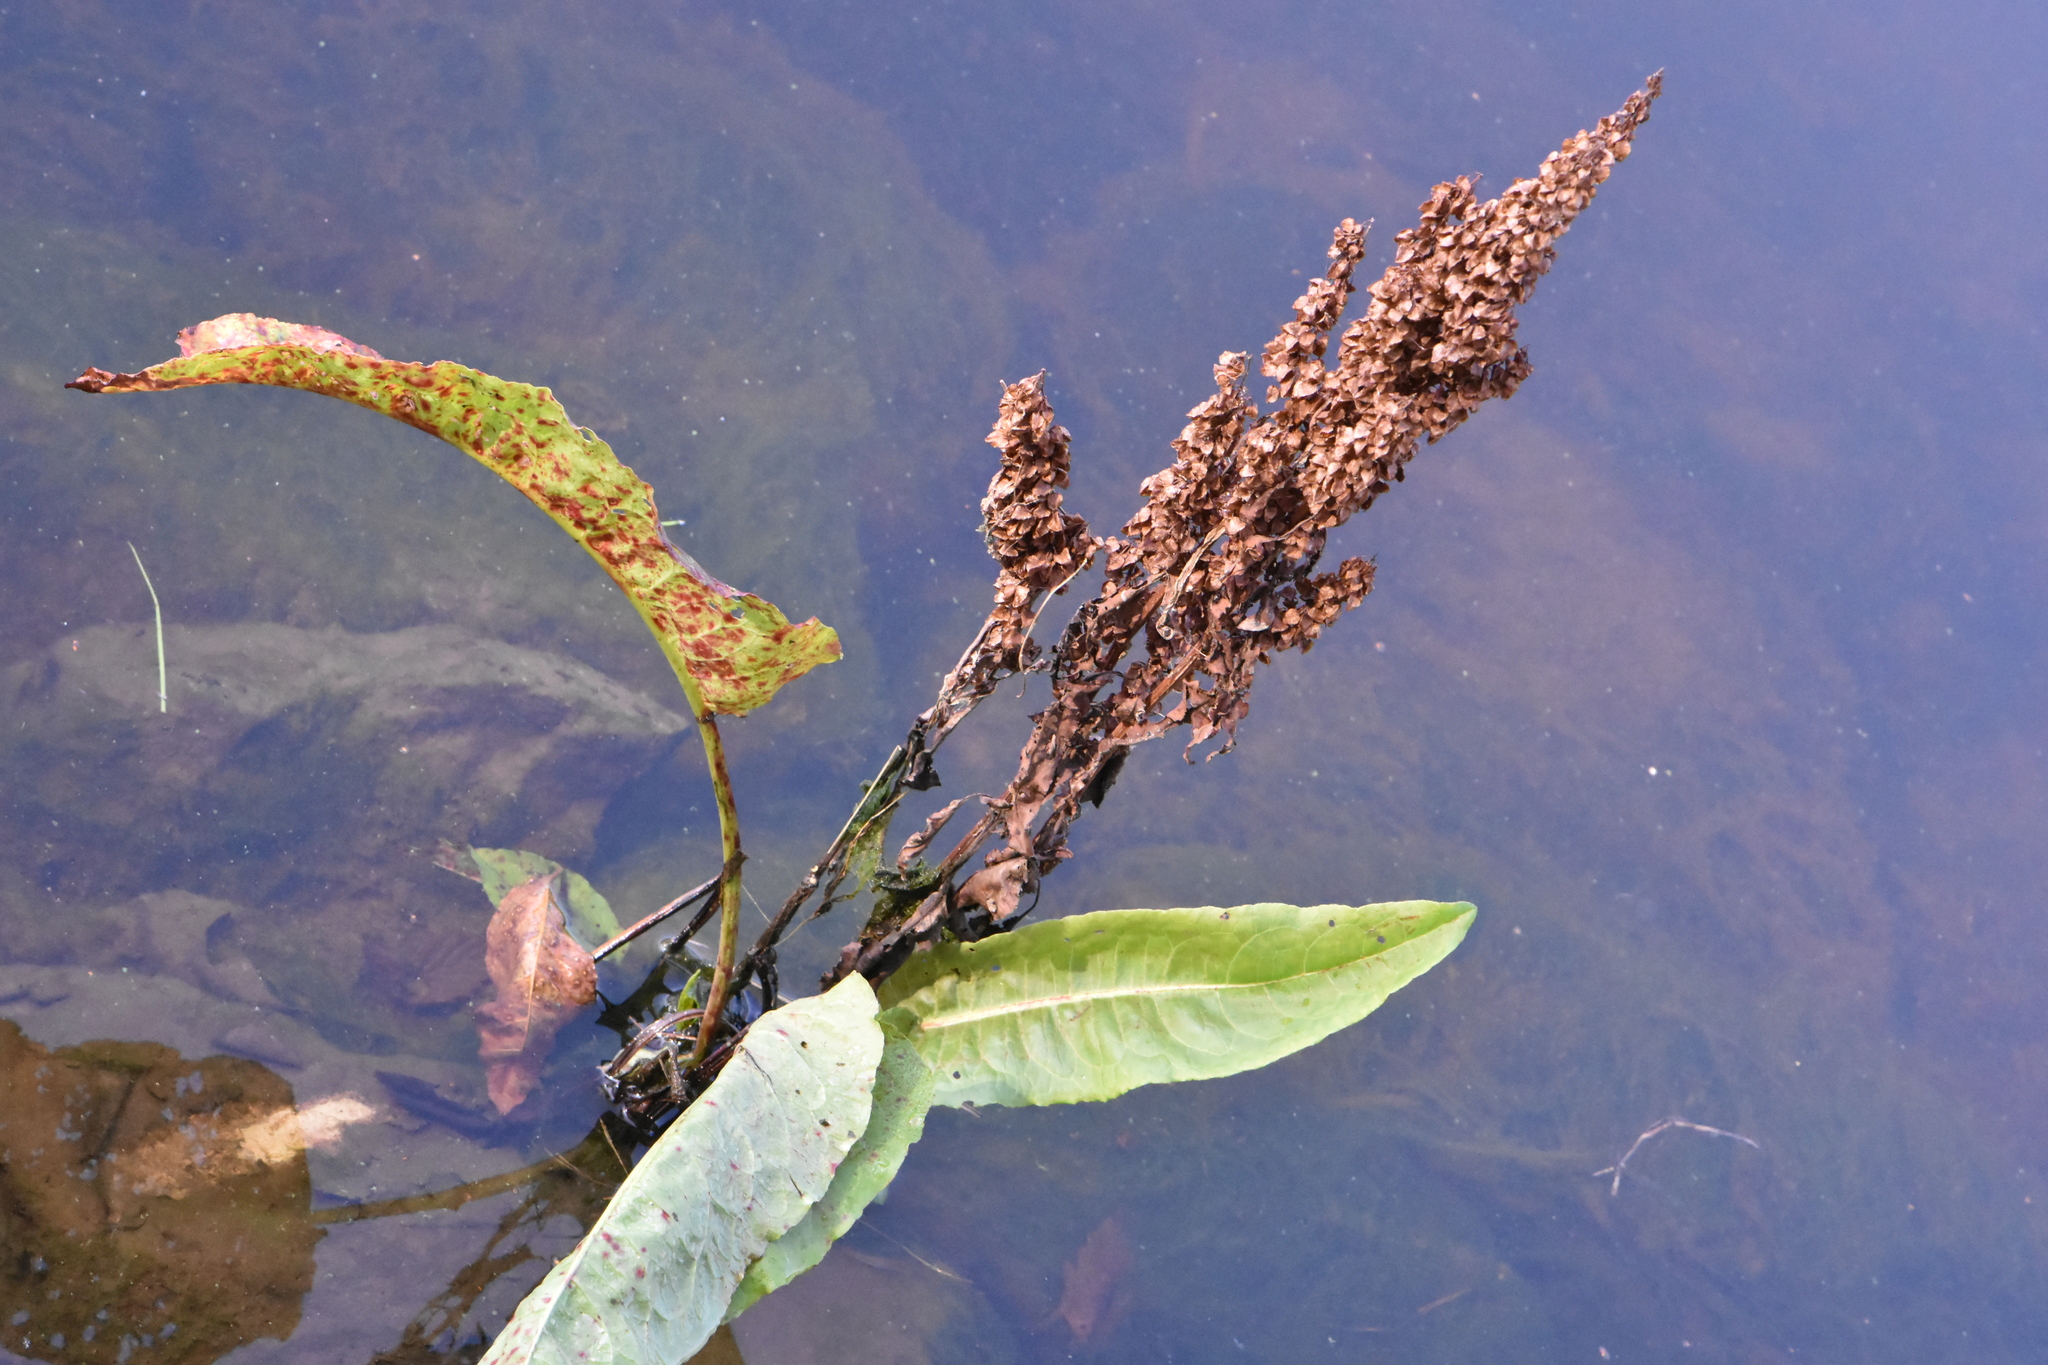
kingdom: Plantae
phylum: Tracheophyta
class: Magnoliopsida
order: Caryophyllales
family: Polygonaceae
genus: Rumex
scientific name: Rumex aquaticus
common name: Scottish dock
